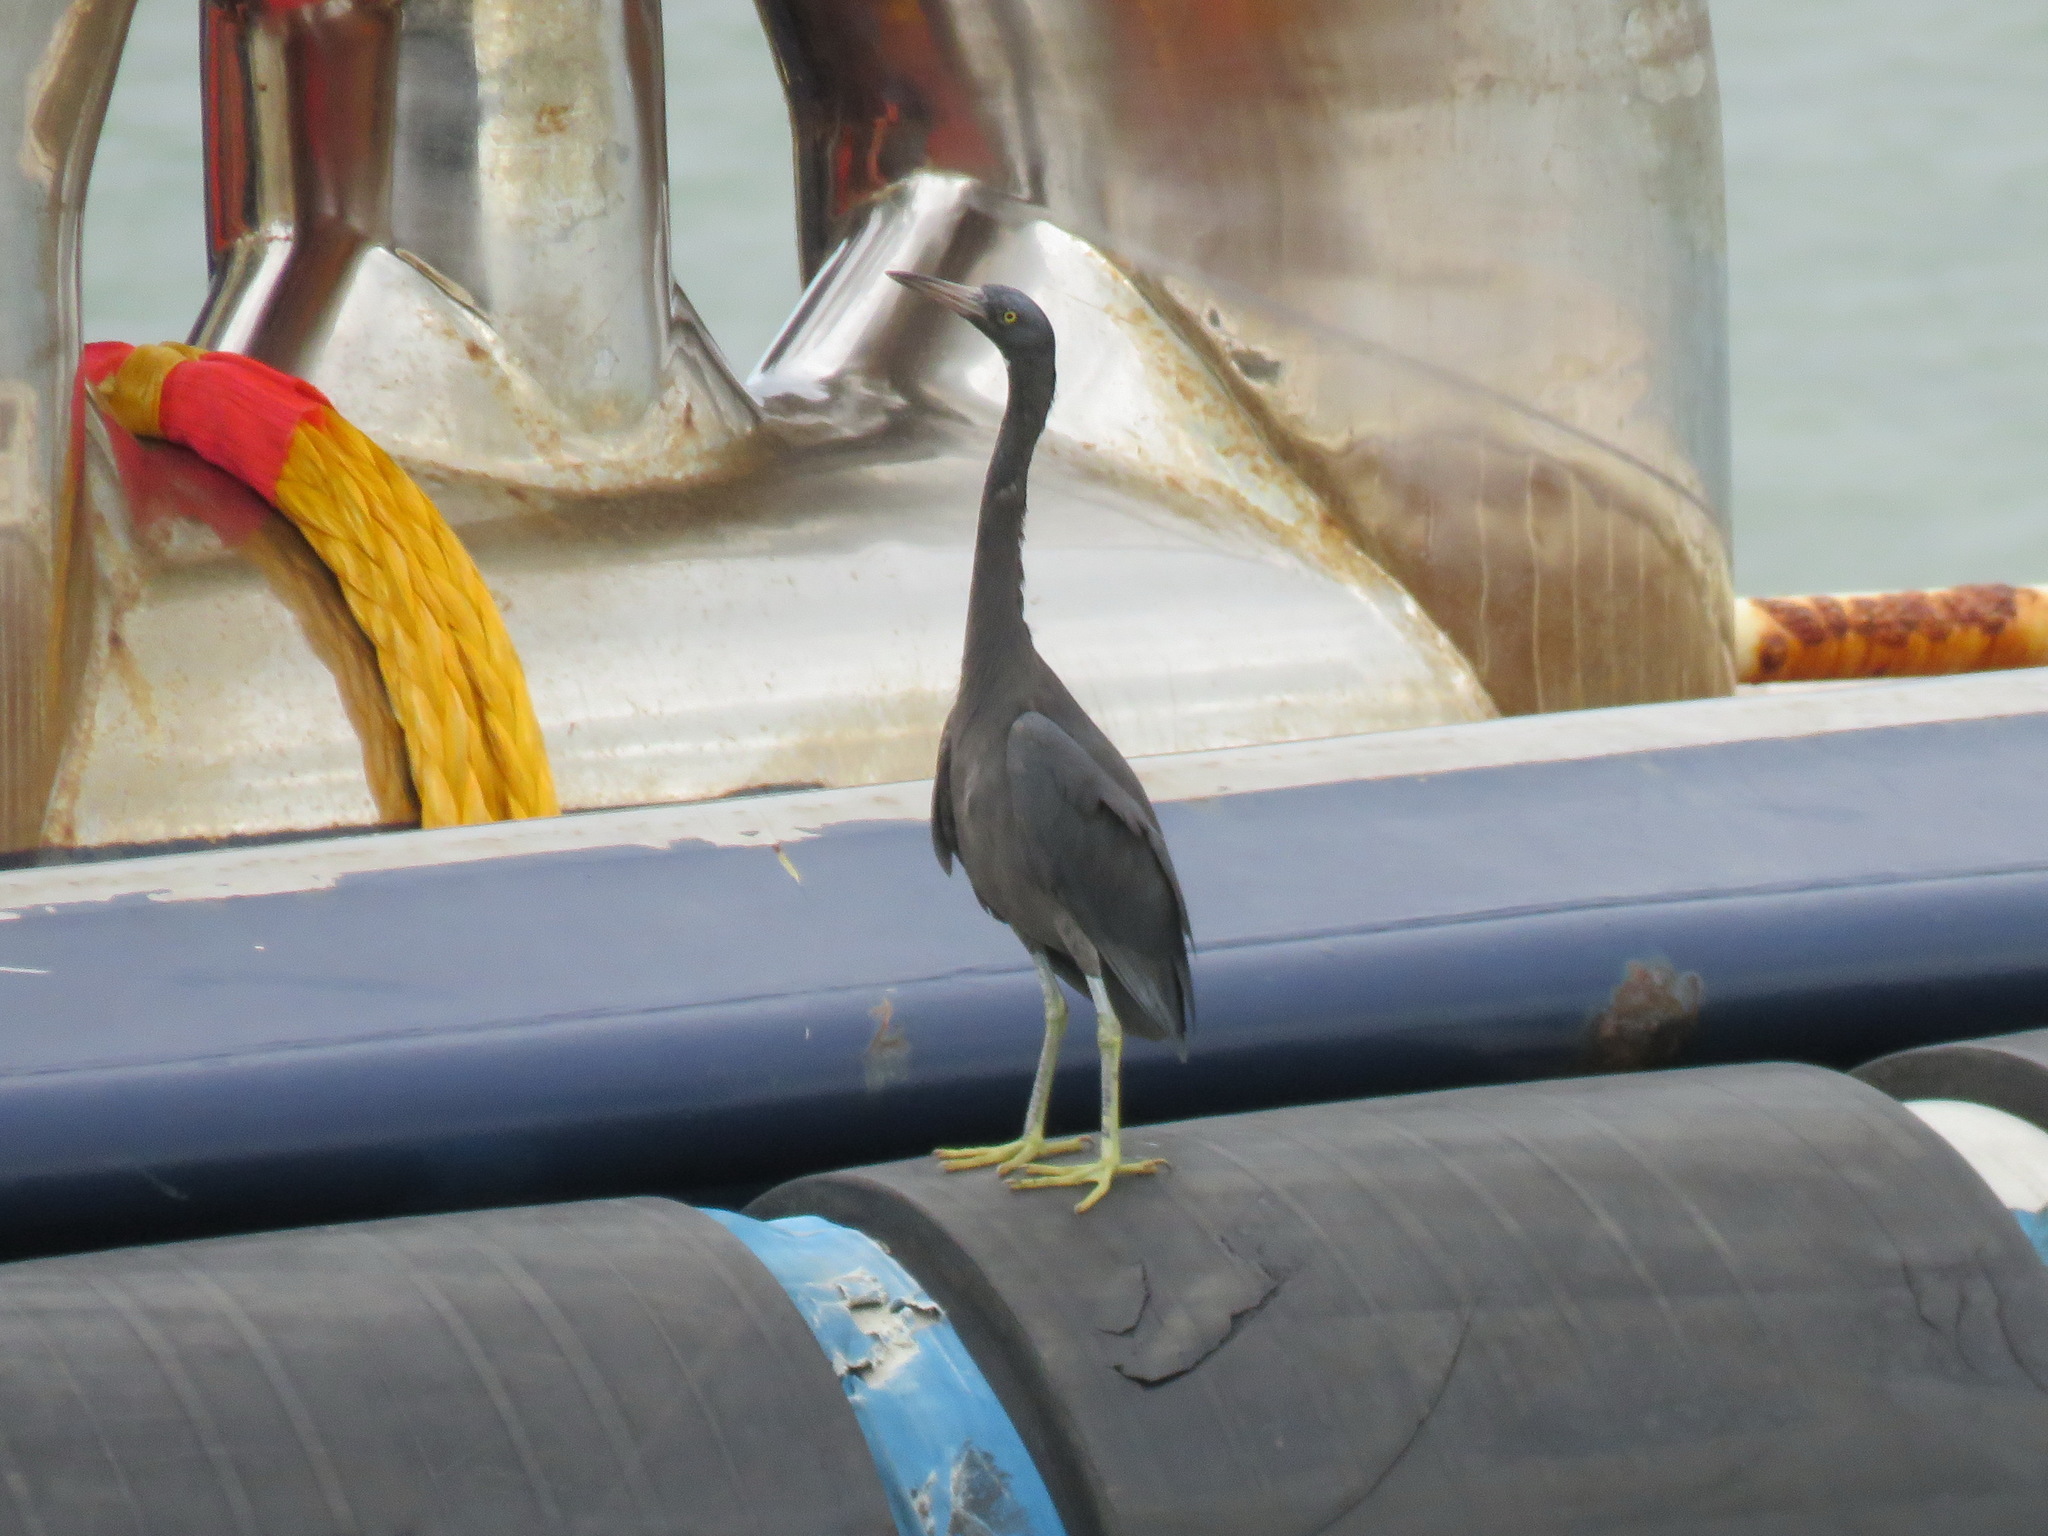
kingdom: Animalia
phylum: Chordata
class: Aves
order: Pelecaniformes
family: Ardeidae
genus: Egretta
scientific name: Egretta sacra
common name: Pacific reef heron
